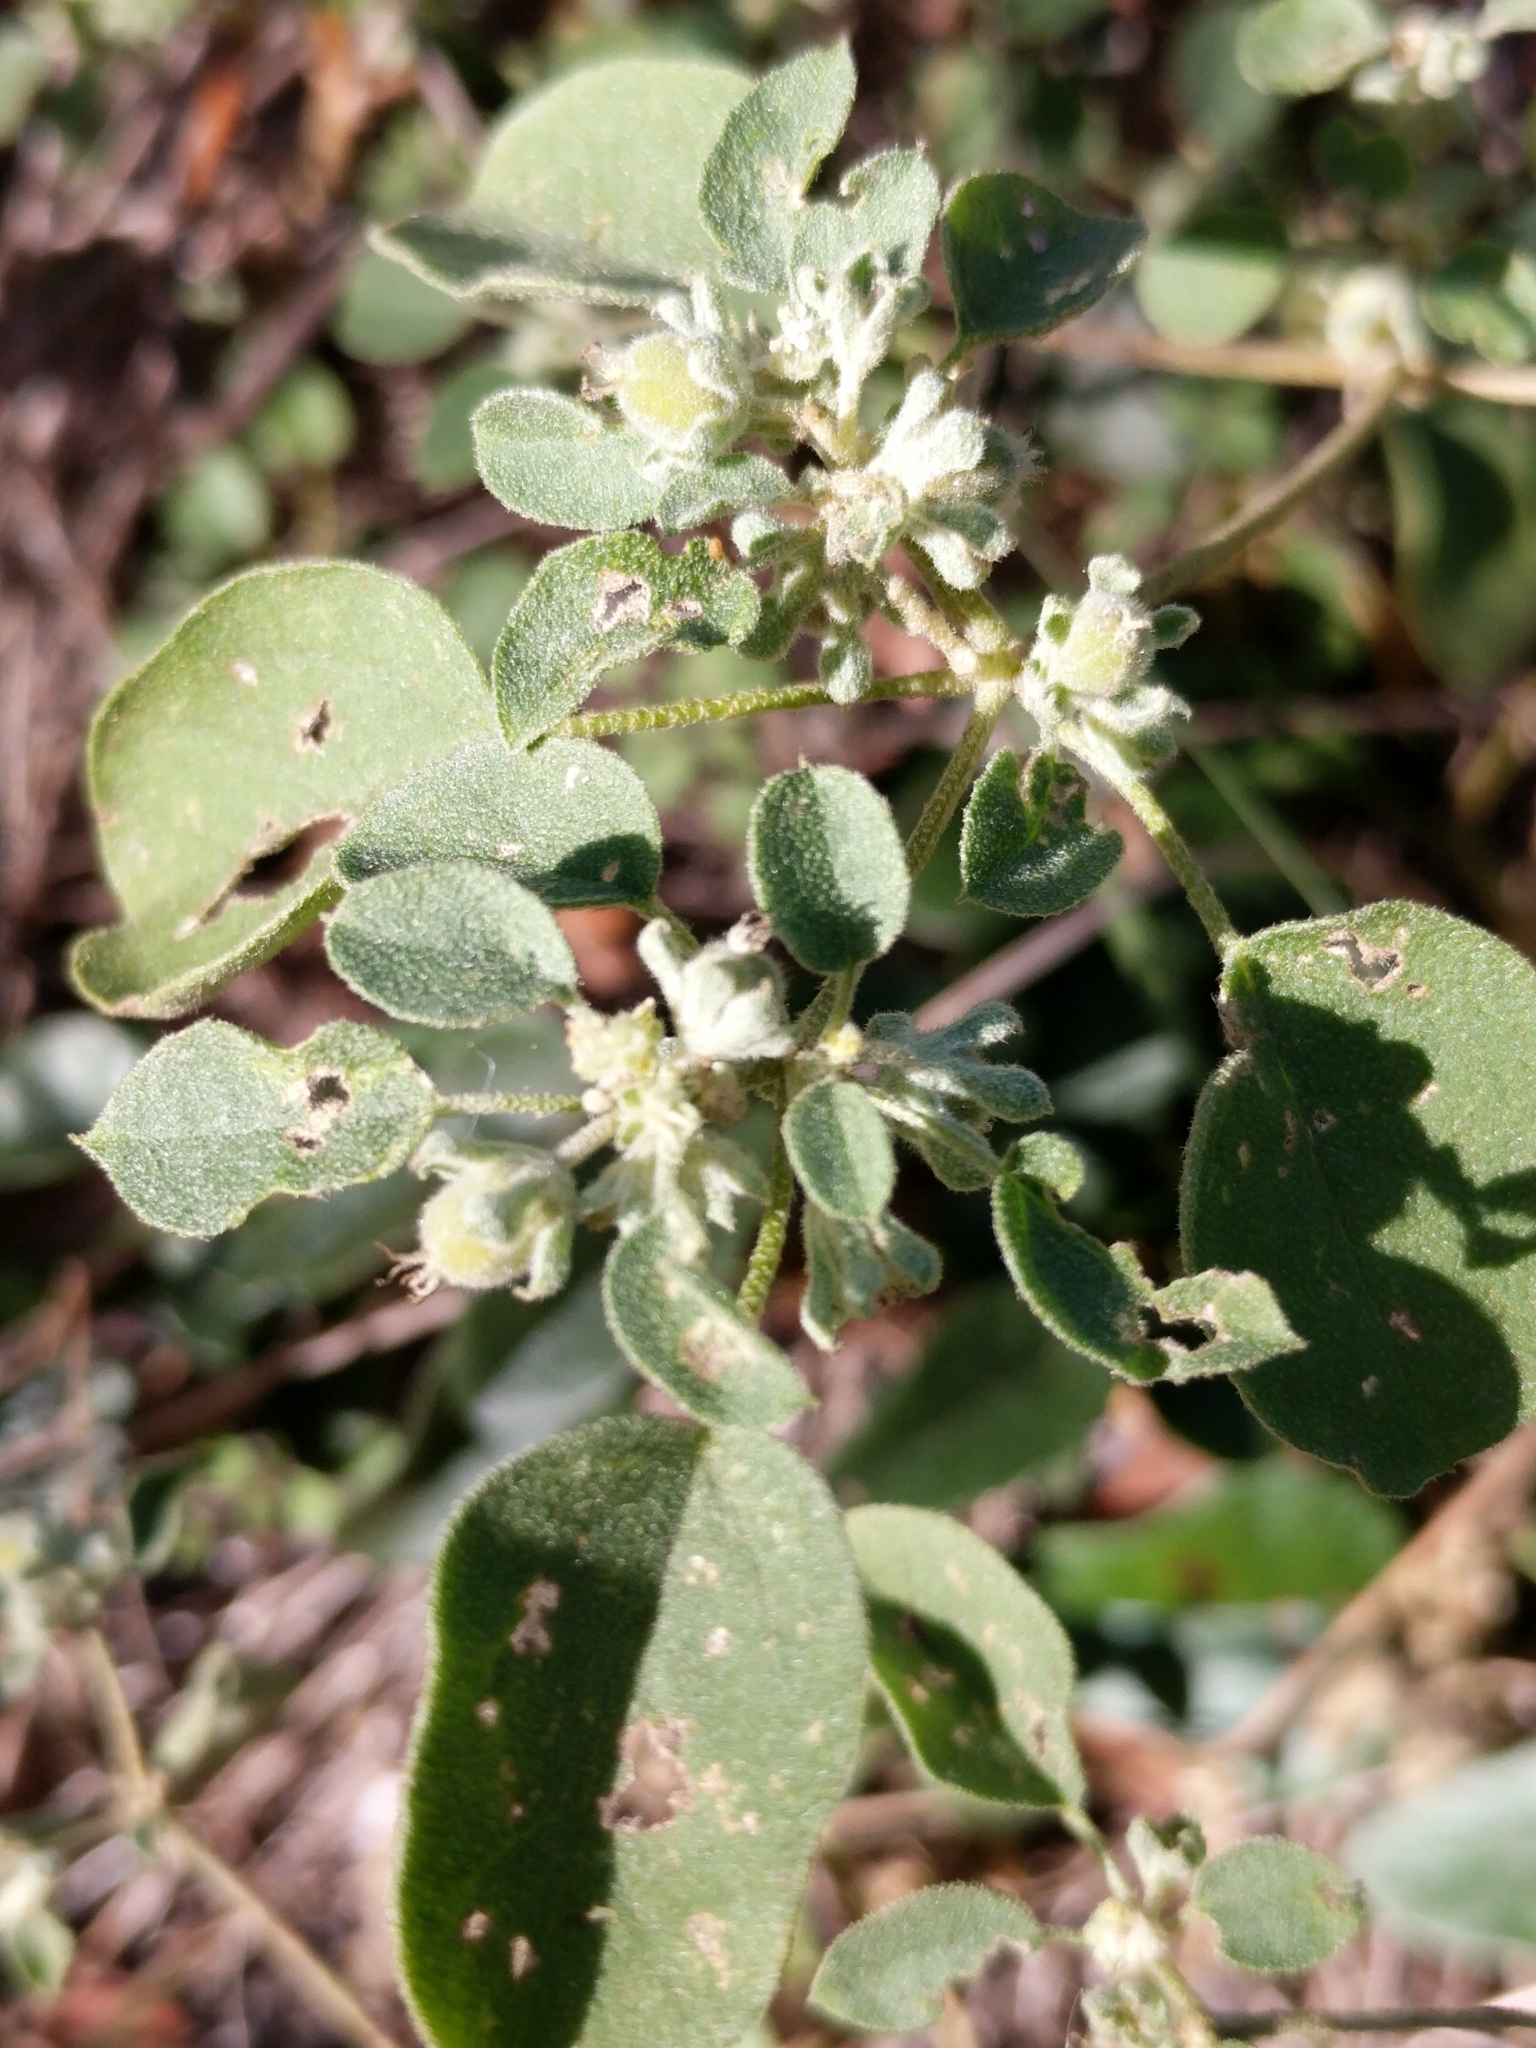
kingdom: Plantae
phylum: Tracheophyta
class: Magnoliopsida
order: Malpighiales
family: Euphorbiaceae
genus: Croton
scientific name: Croton lindheimerianus
